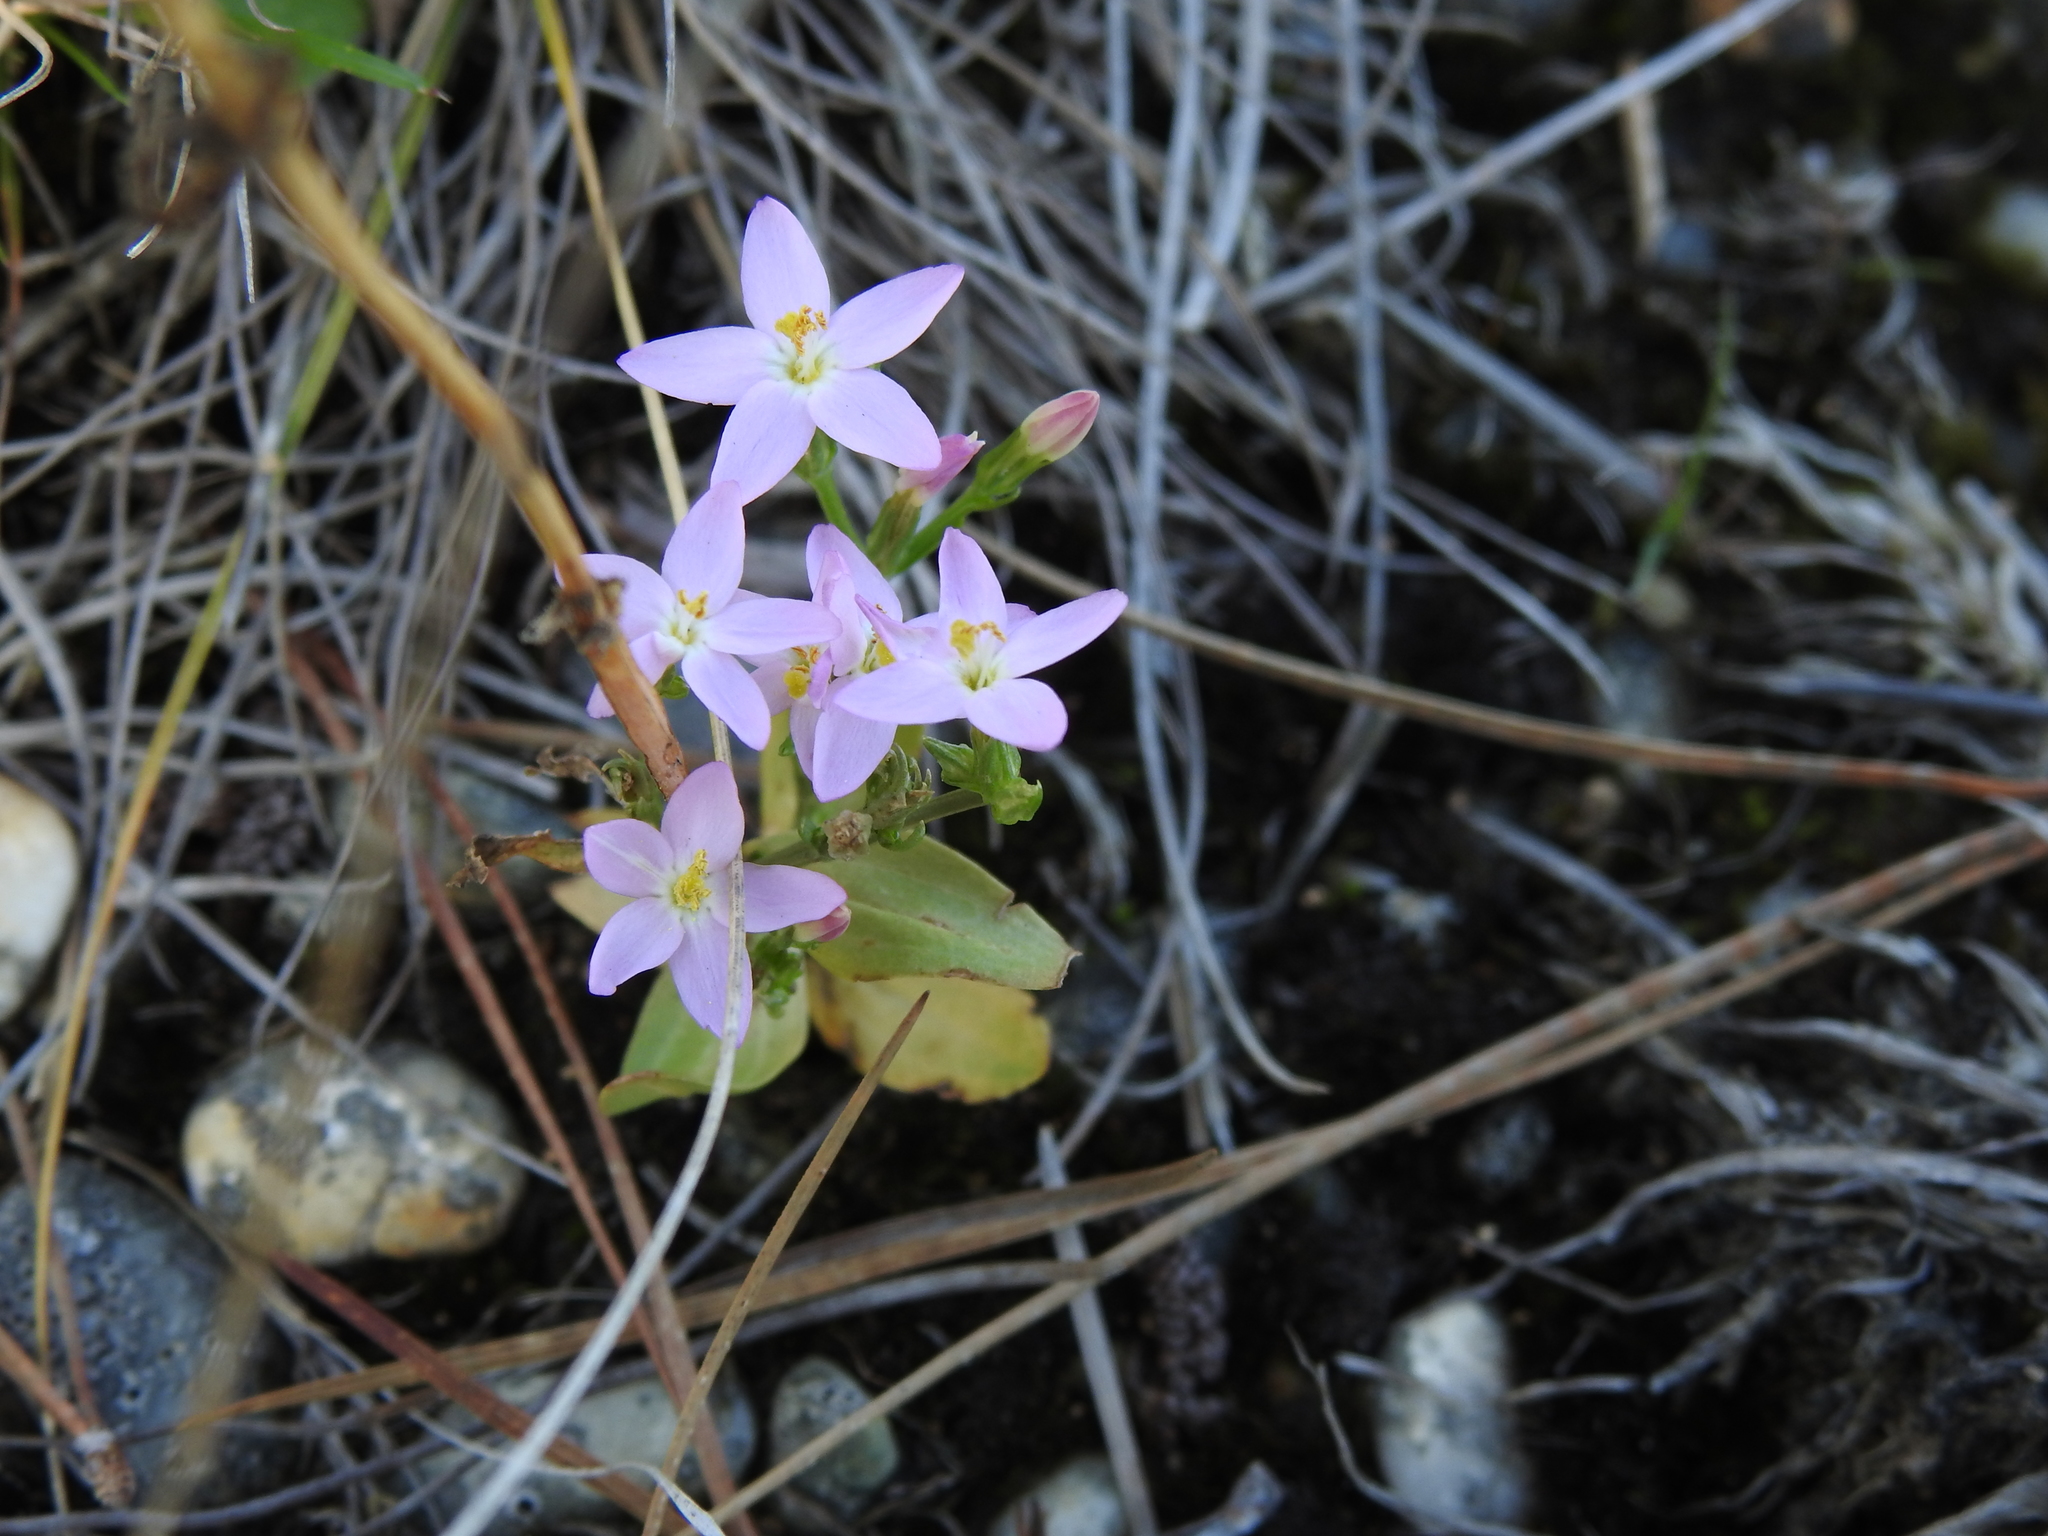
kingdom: Plantae
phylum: Tracheophyta
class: Magnoliopsida
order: Gentianales
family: Gentianaceae
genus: Centaurium
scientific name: Centaurium erythraea
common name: Common centaury
